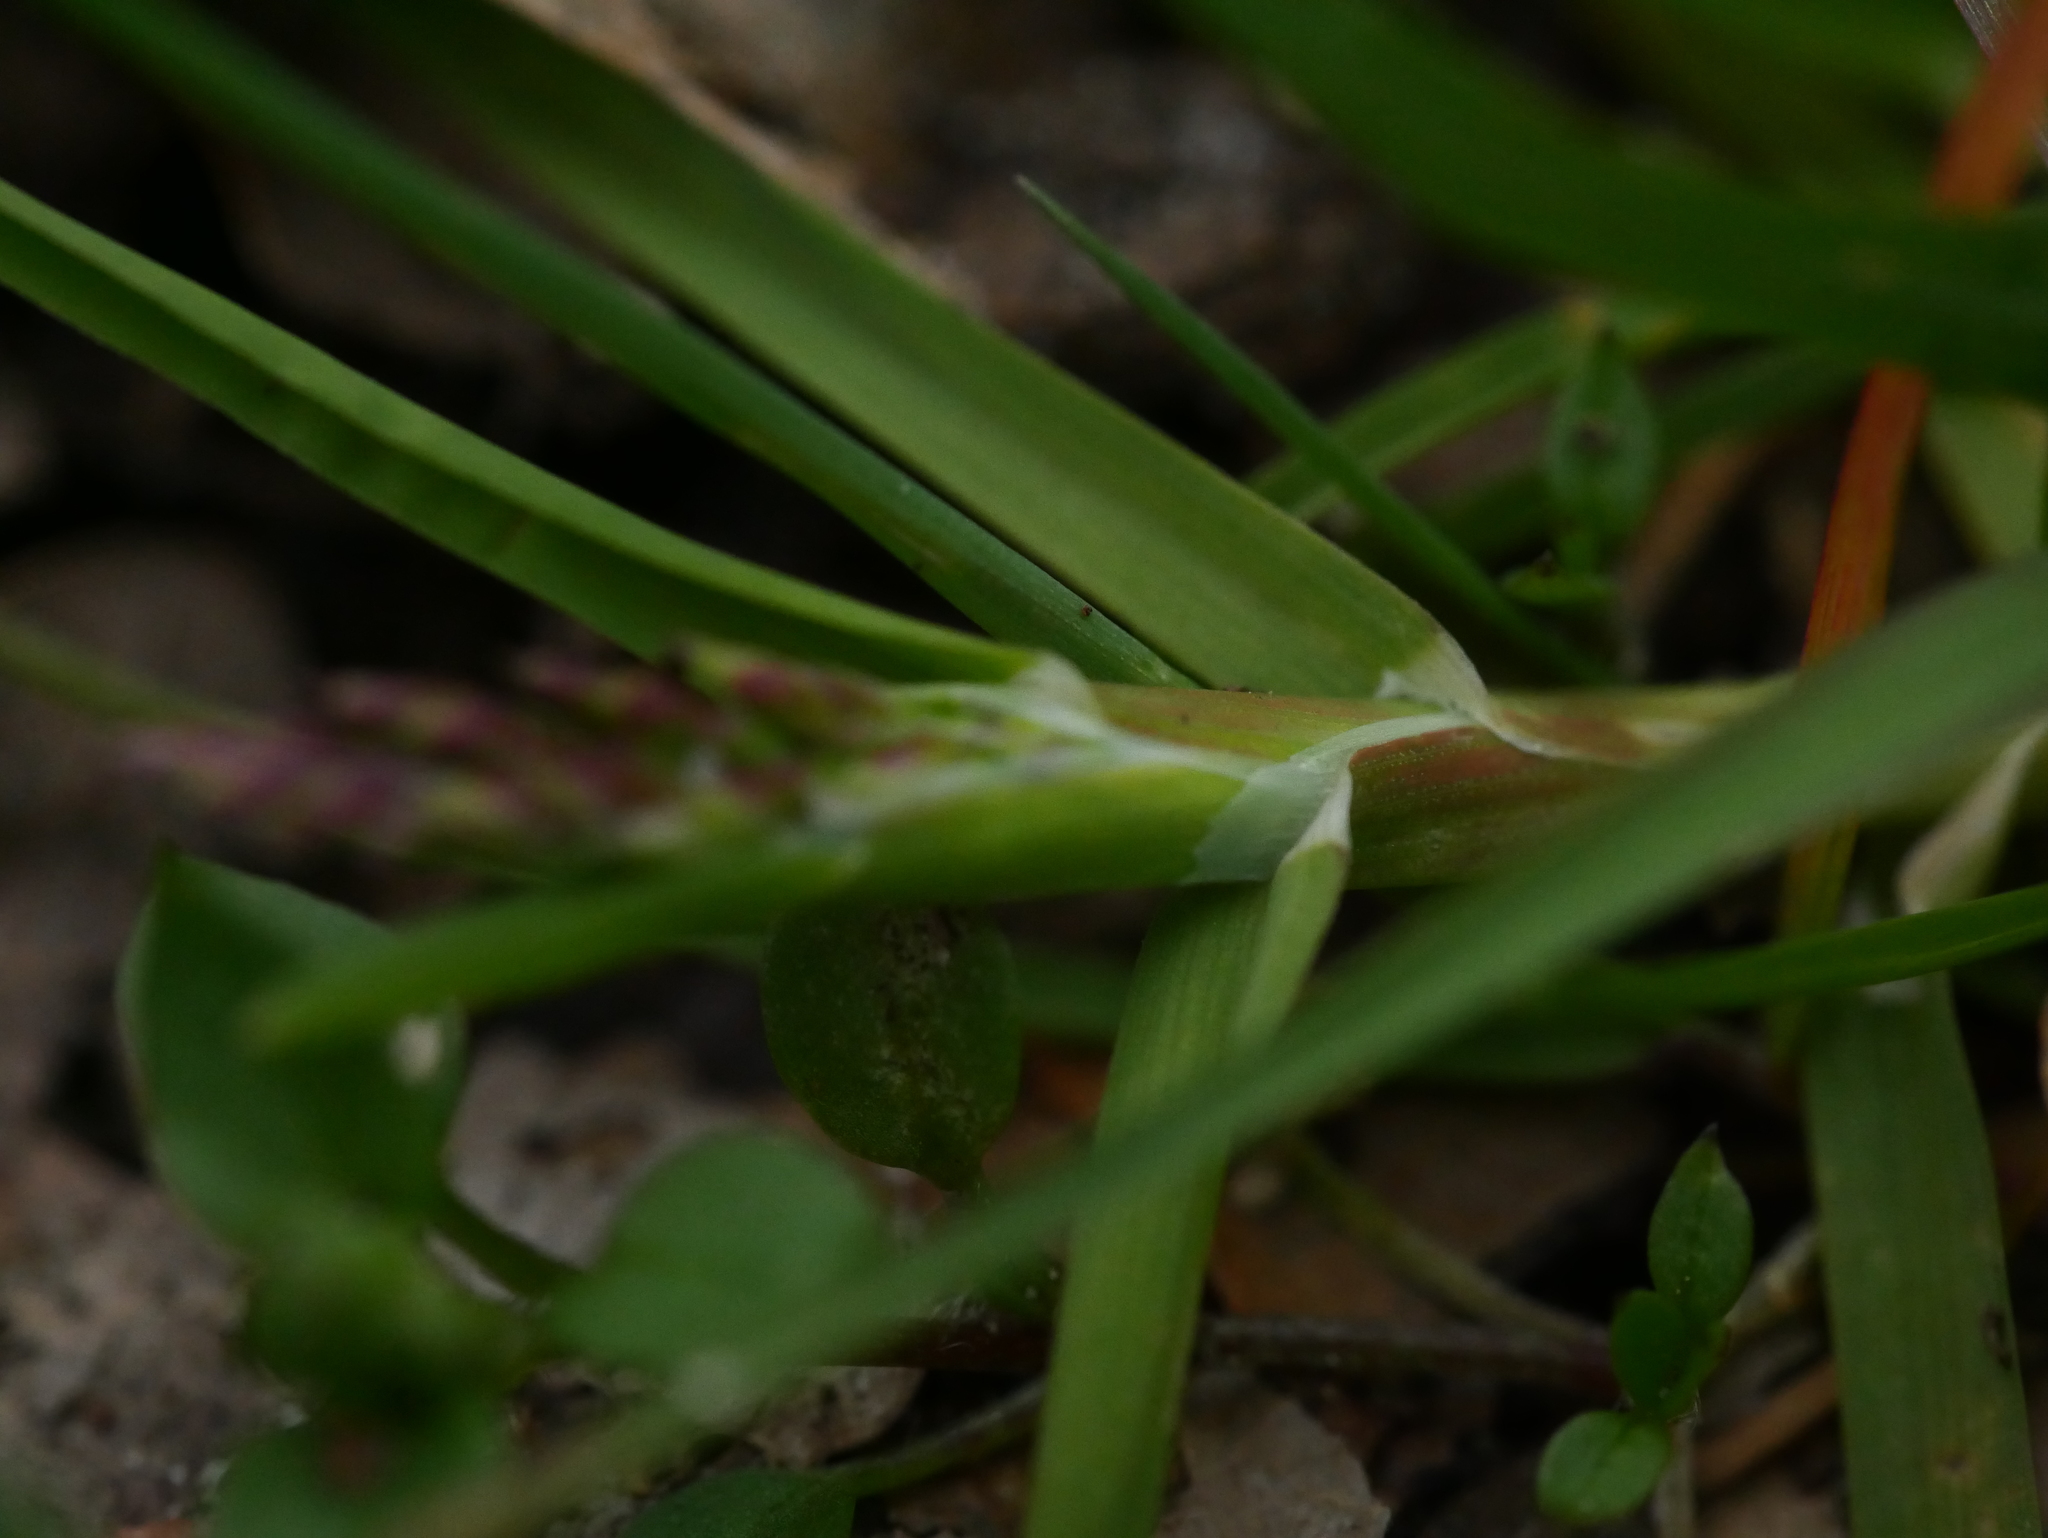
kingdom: Plantae
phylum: Tracheophyta
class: Liliopsida
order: Poales
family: Poaceae
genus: Poa
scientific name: Poa annua
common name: Annual bluegrass
